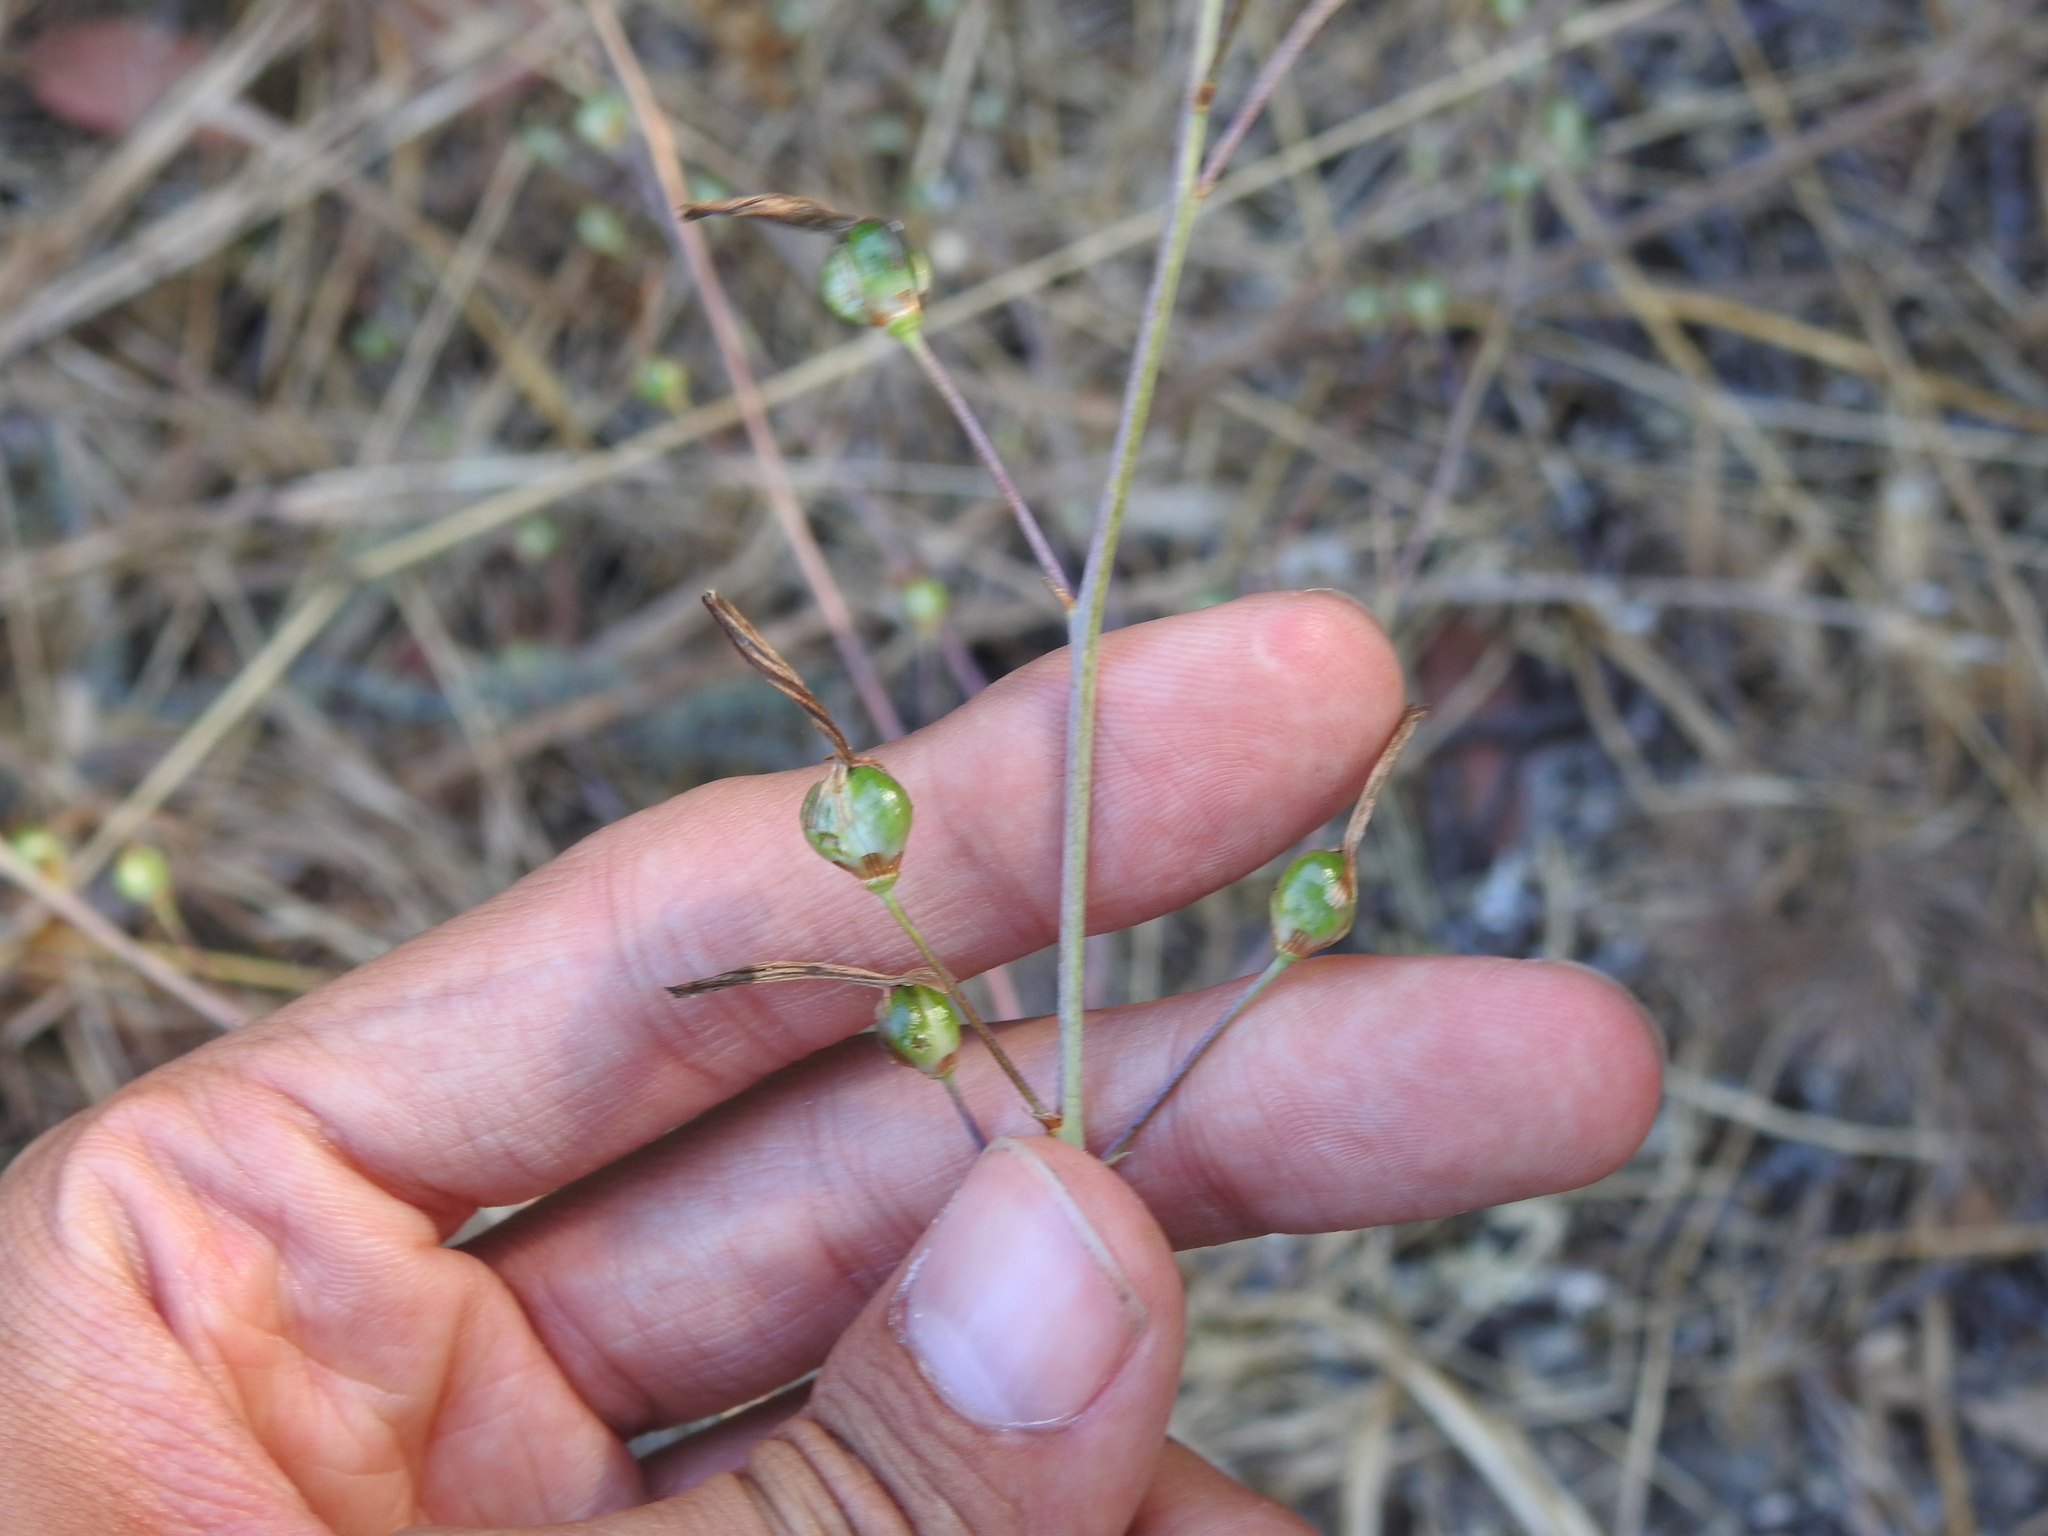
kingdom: Plantae
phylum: Tracheophyta
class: Liliopsida
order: Asparagales
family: Asparagaceae
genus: Chlorogalum
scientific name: Chlorogalum pomeridianum
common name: Amole
